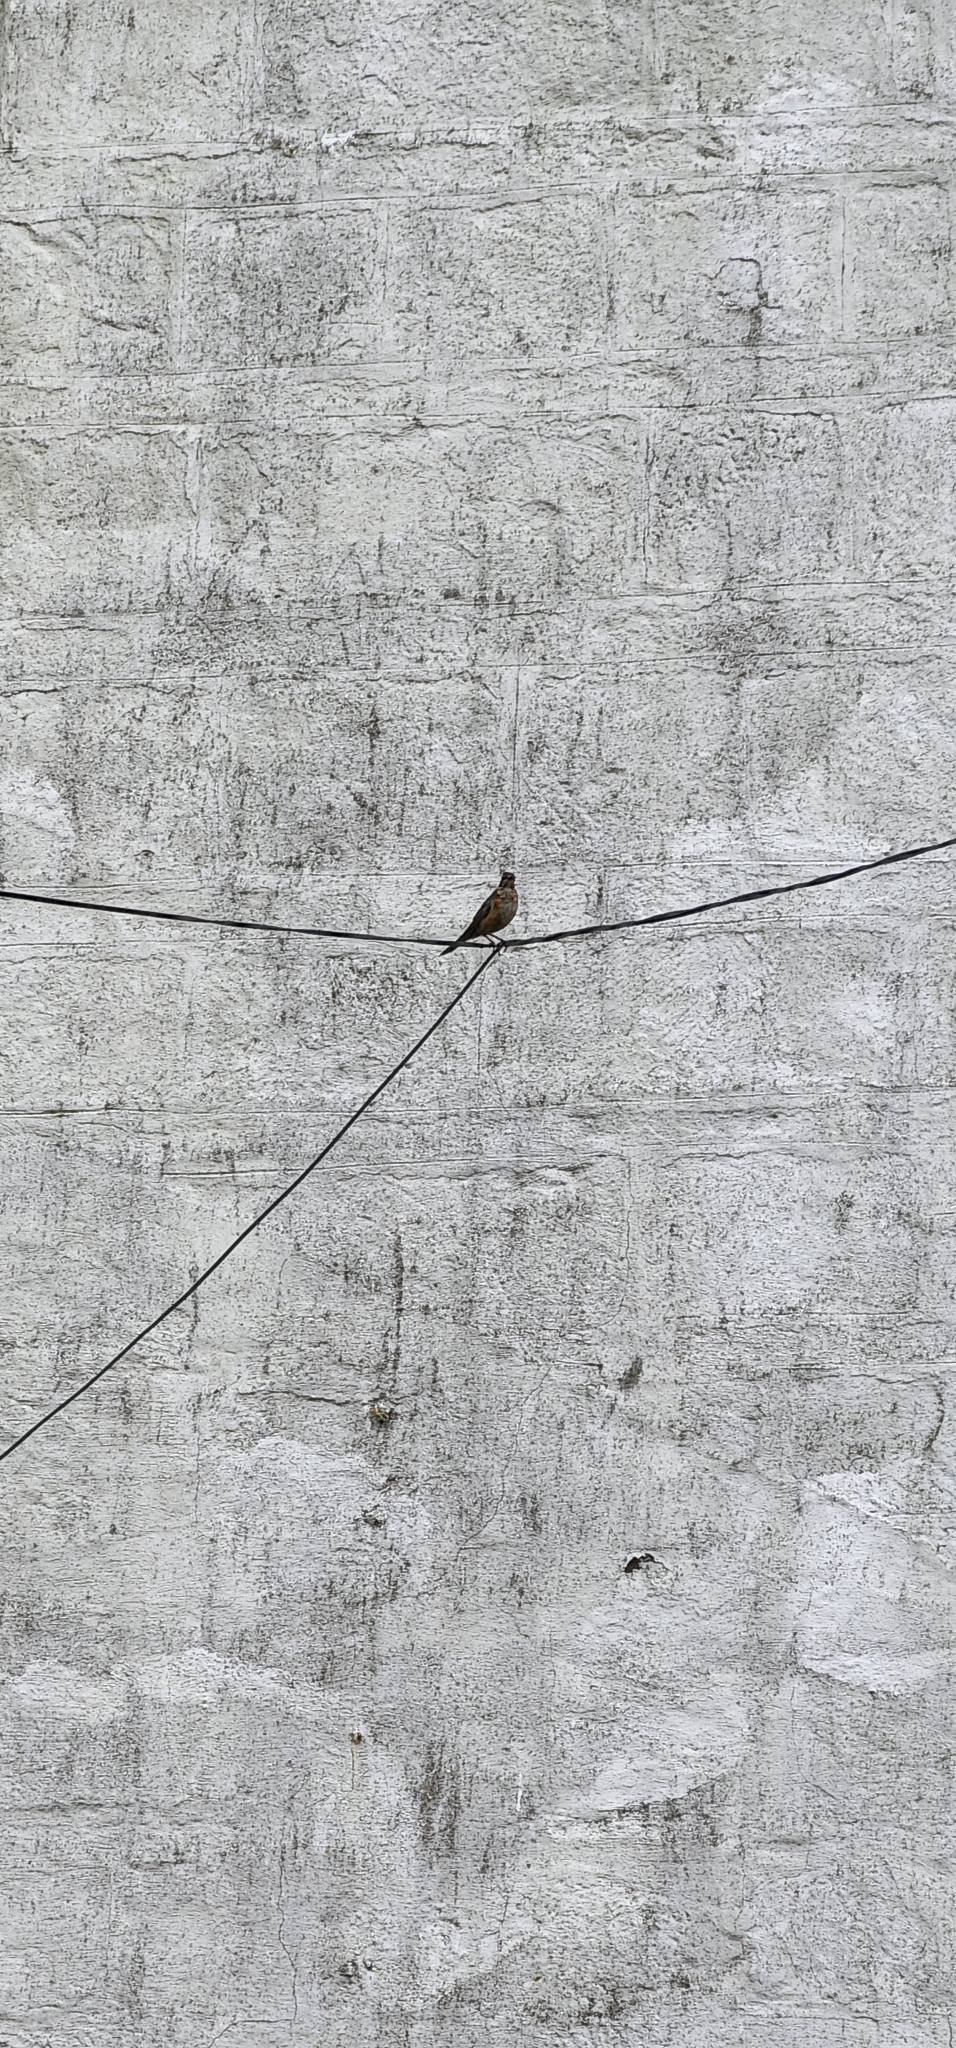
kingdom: Animalia
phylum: Chordata
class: Aves
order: Passeriformes
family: Turdidae
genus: Turdus
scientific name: Turdus migratorius
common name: American robin
